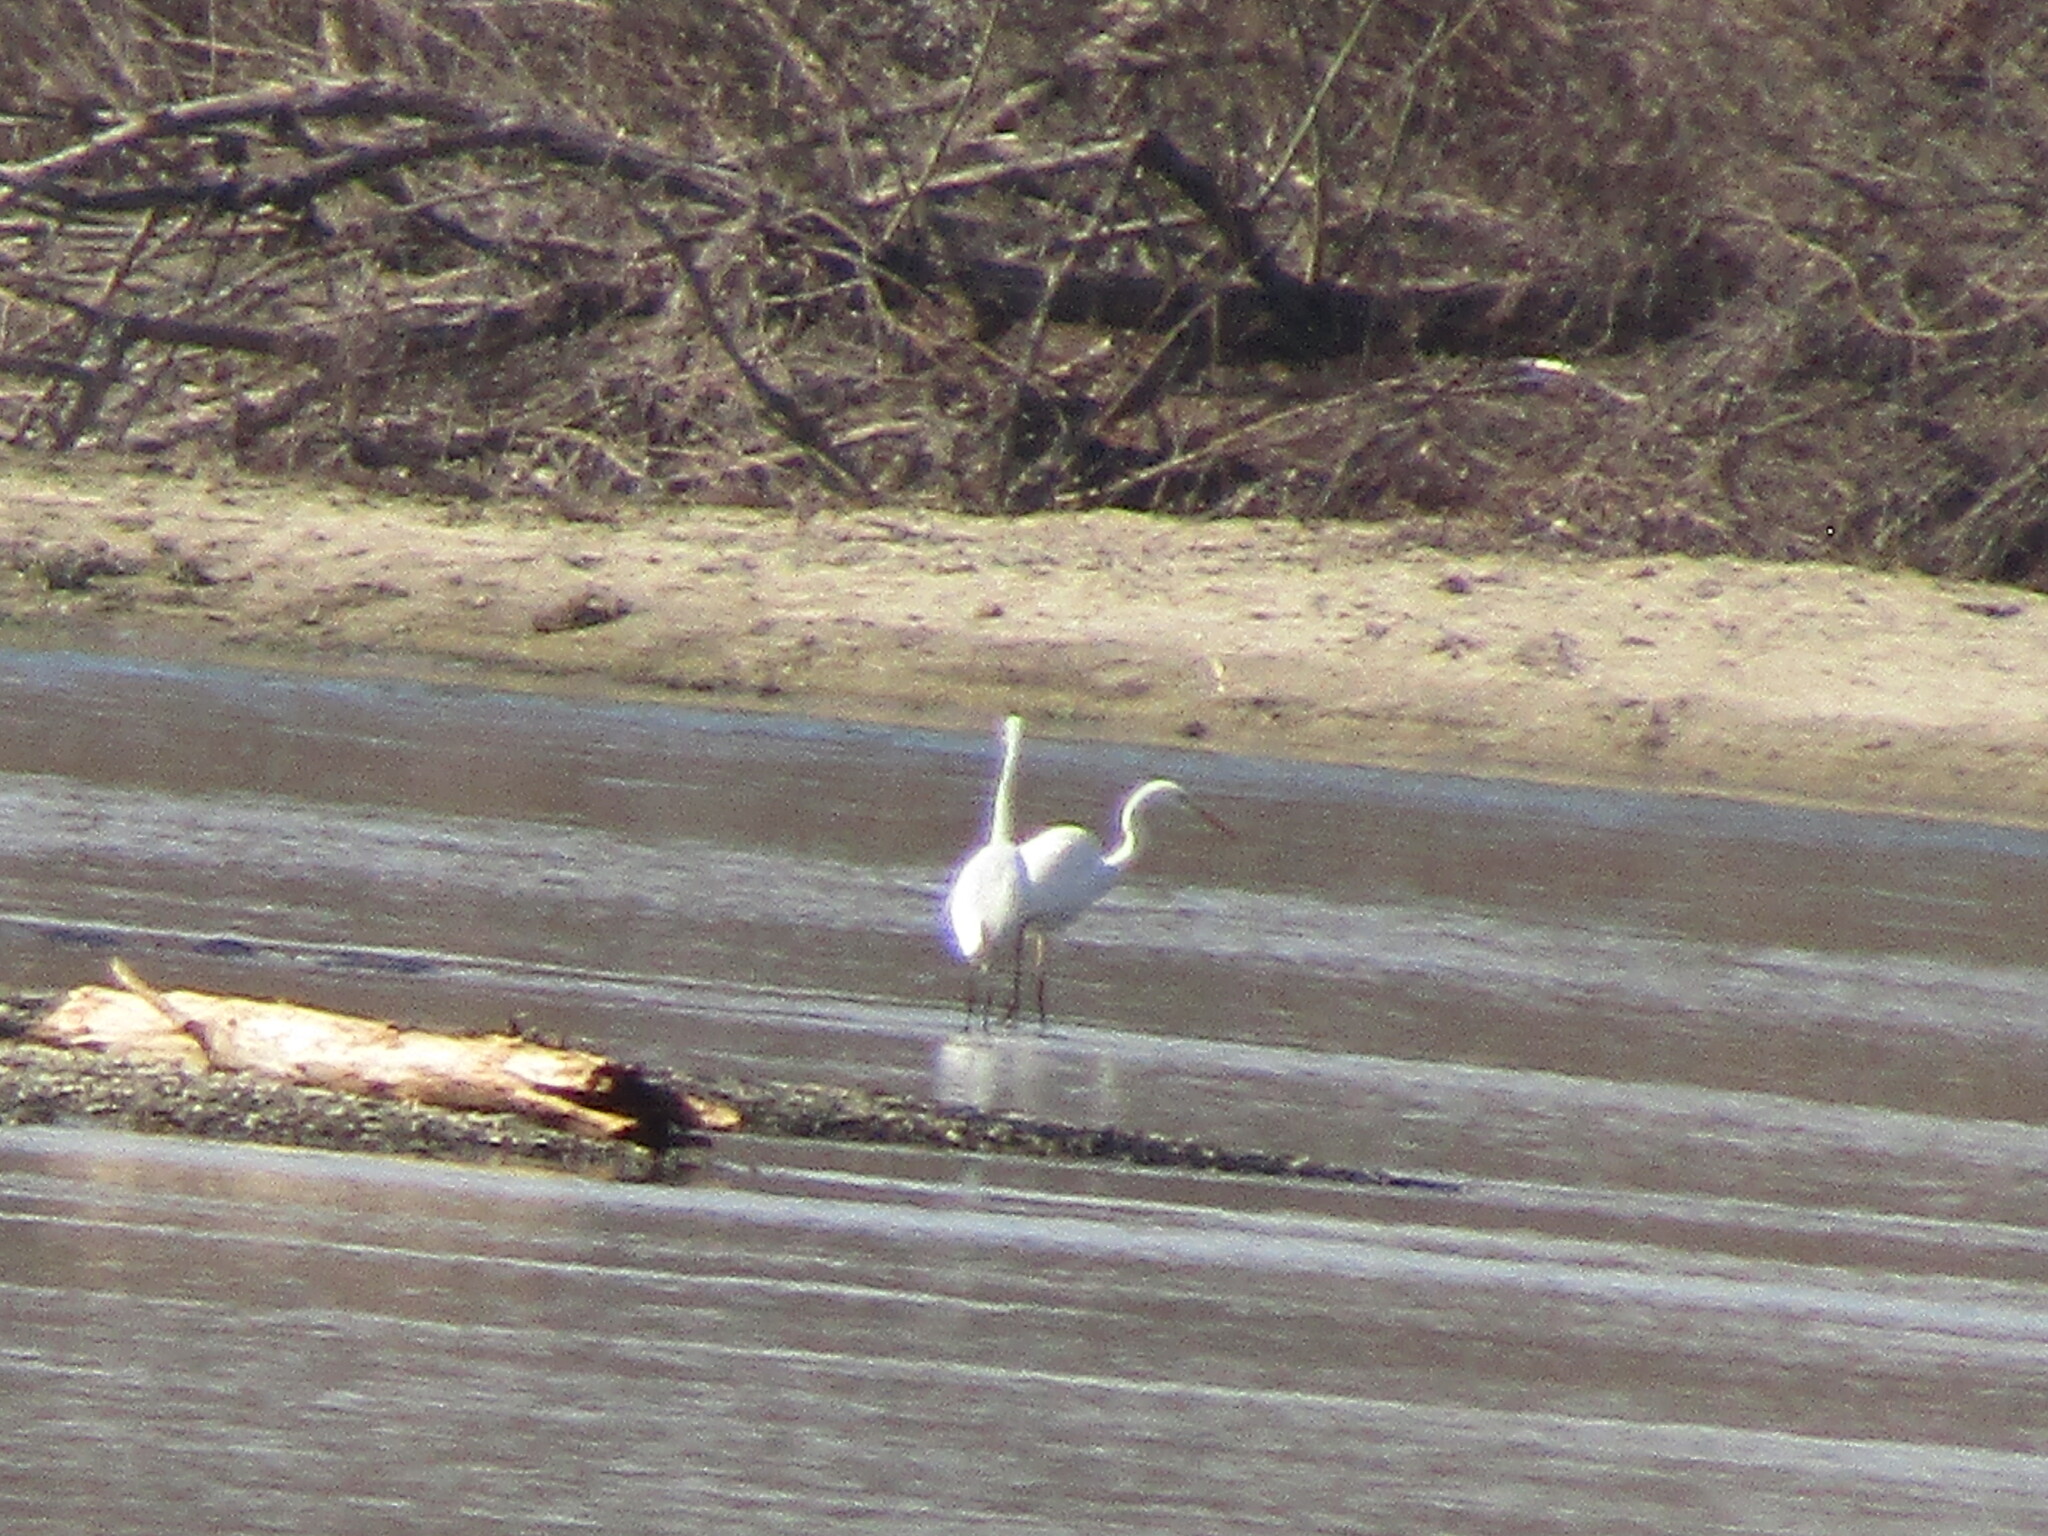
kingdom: Animalia
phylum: Chordata
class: Aves
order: Pelecaniformes
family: Ardeidae
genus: Ardea
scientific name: Ardea alba
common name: Great egret
